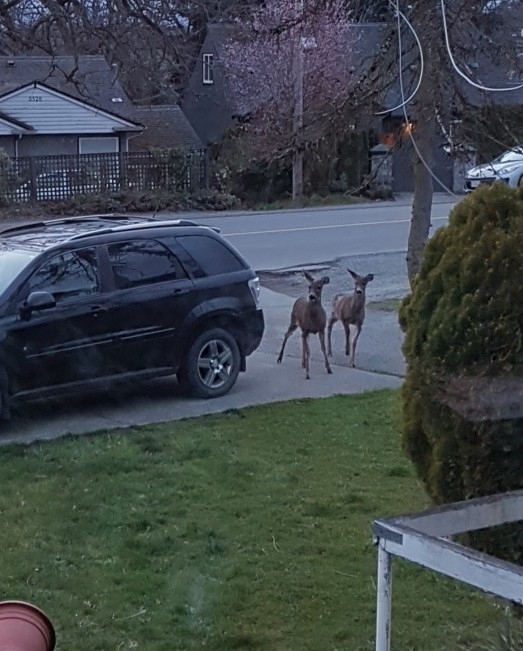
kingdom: Animalia
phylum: Chordata
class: Mammalia
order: Artiodactyla
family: Cervidae
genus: Odocoileus
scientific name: Odocoileus hemionus
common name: Mule deer
